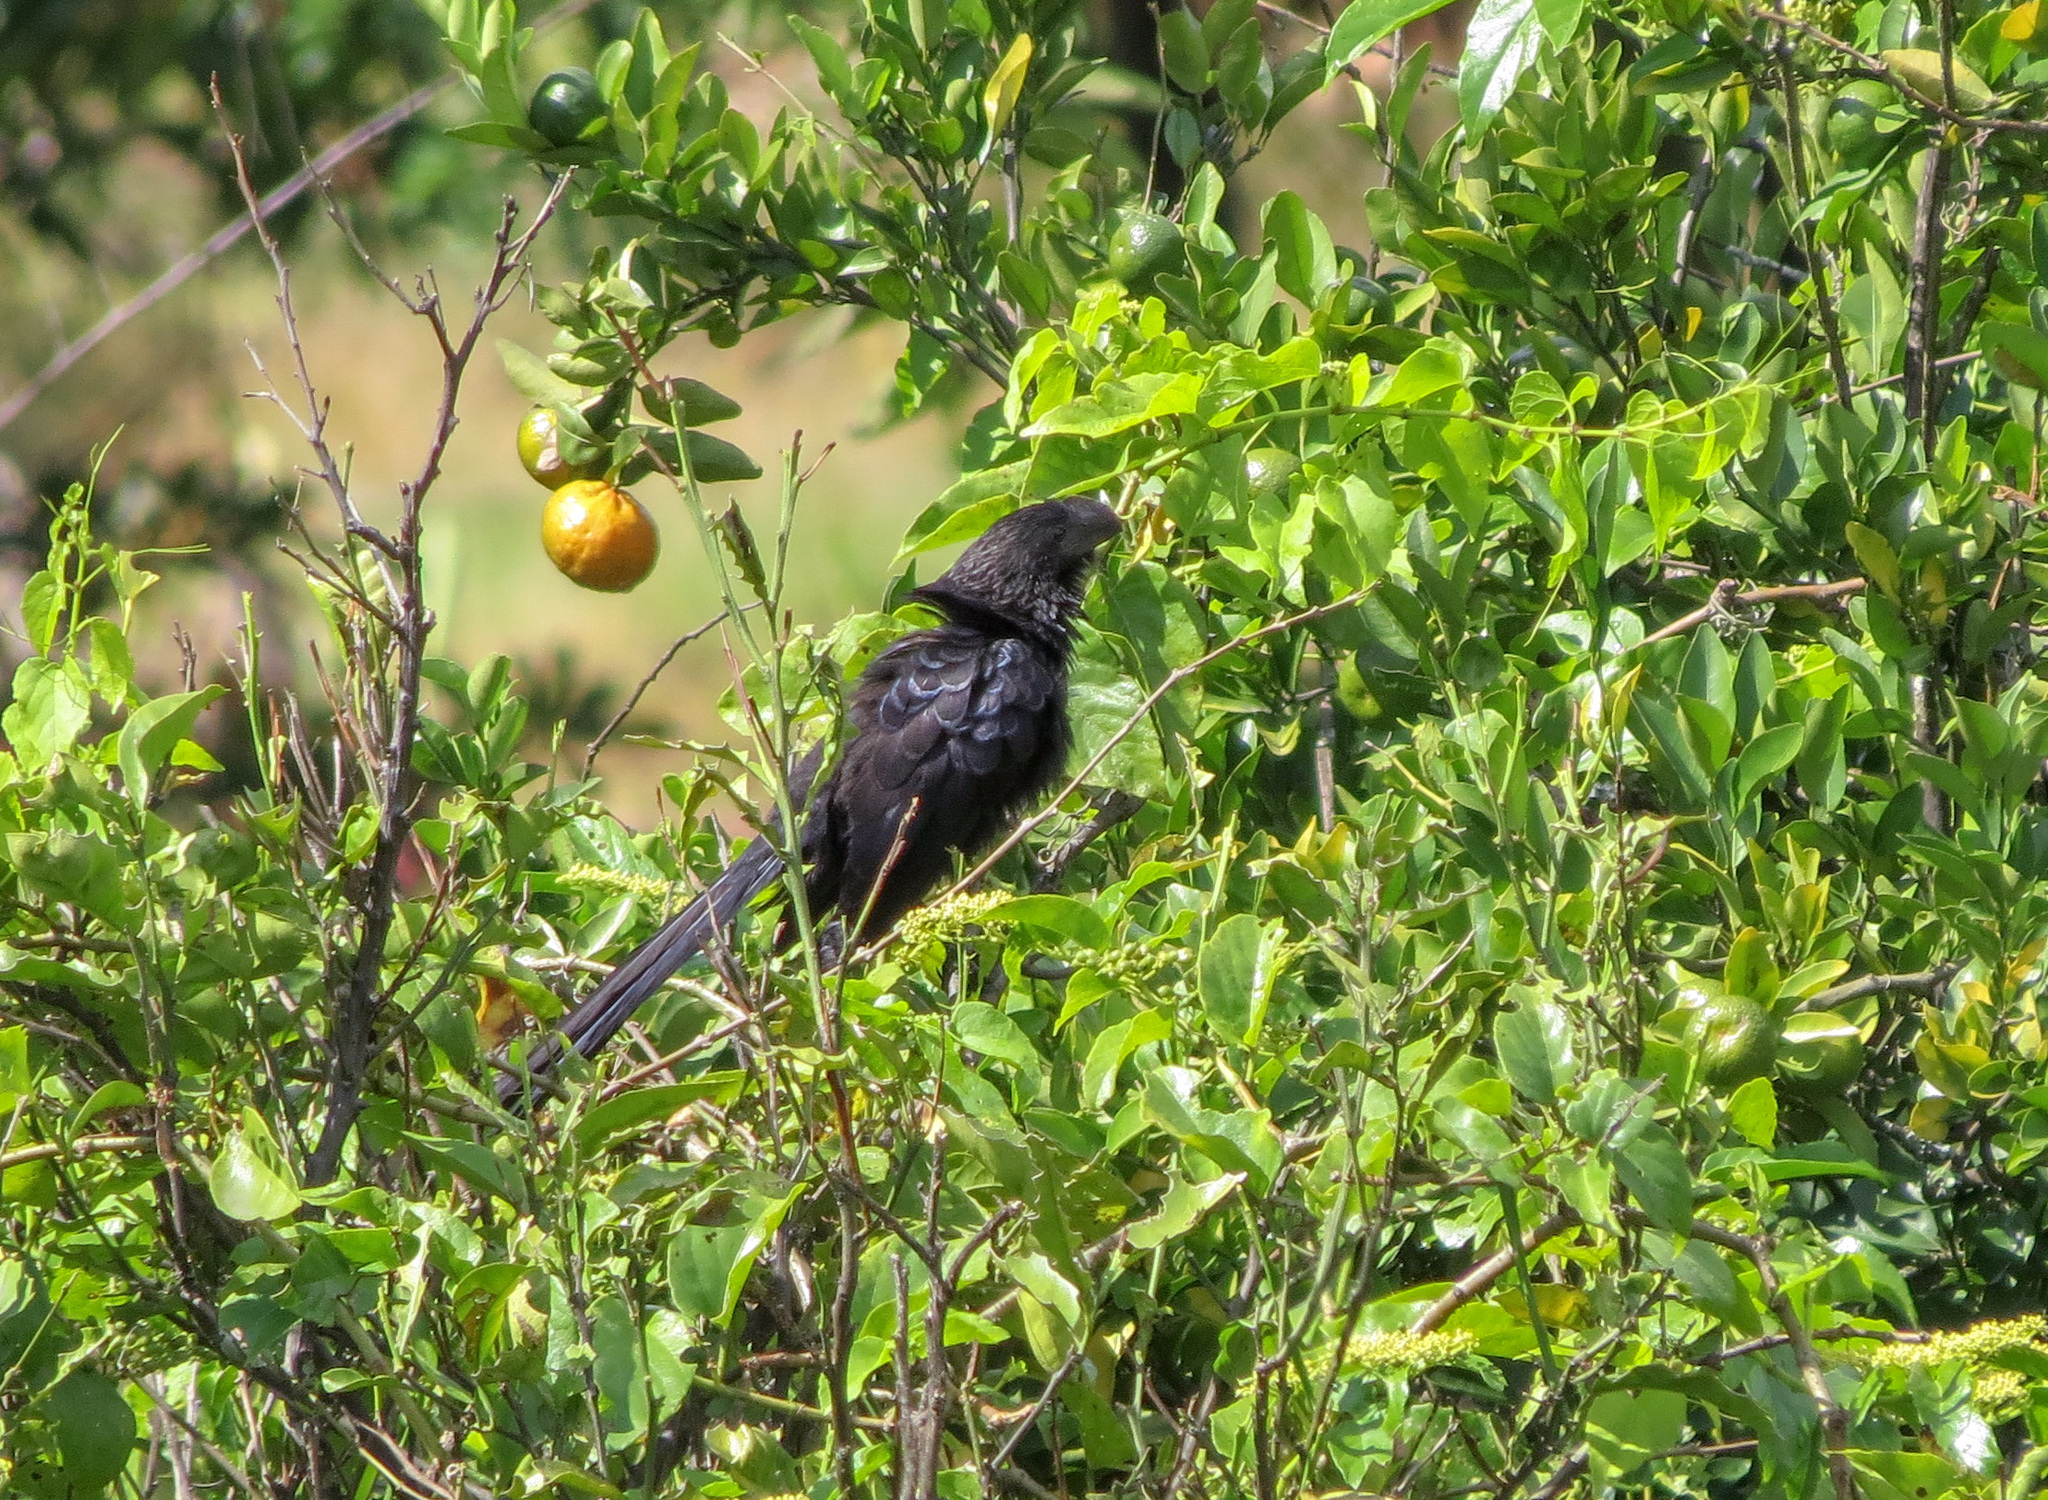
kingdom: Animalia
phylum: Chordata
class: Aves
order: Cuculiformes
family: Cuculidae
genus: Crotophaga
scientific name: Crotophaga ani
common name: Smooth-billed ani
